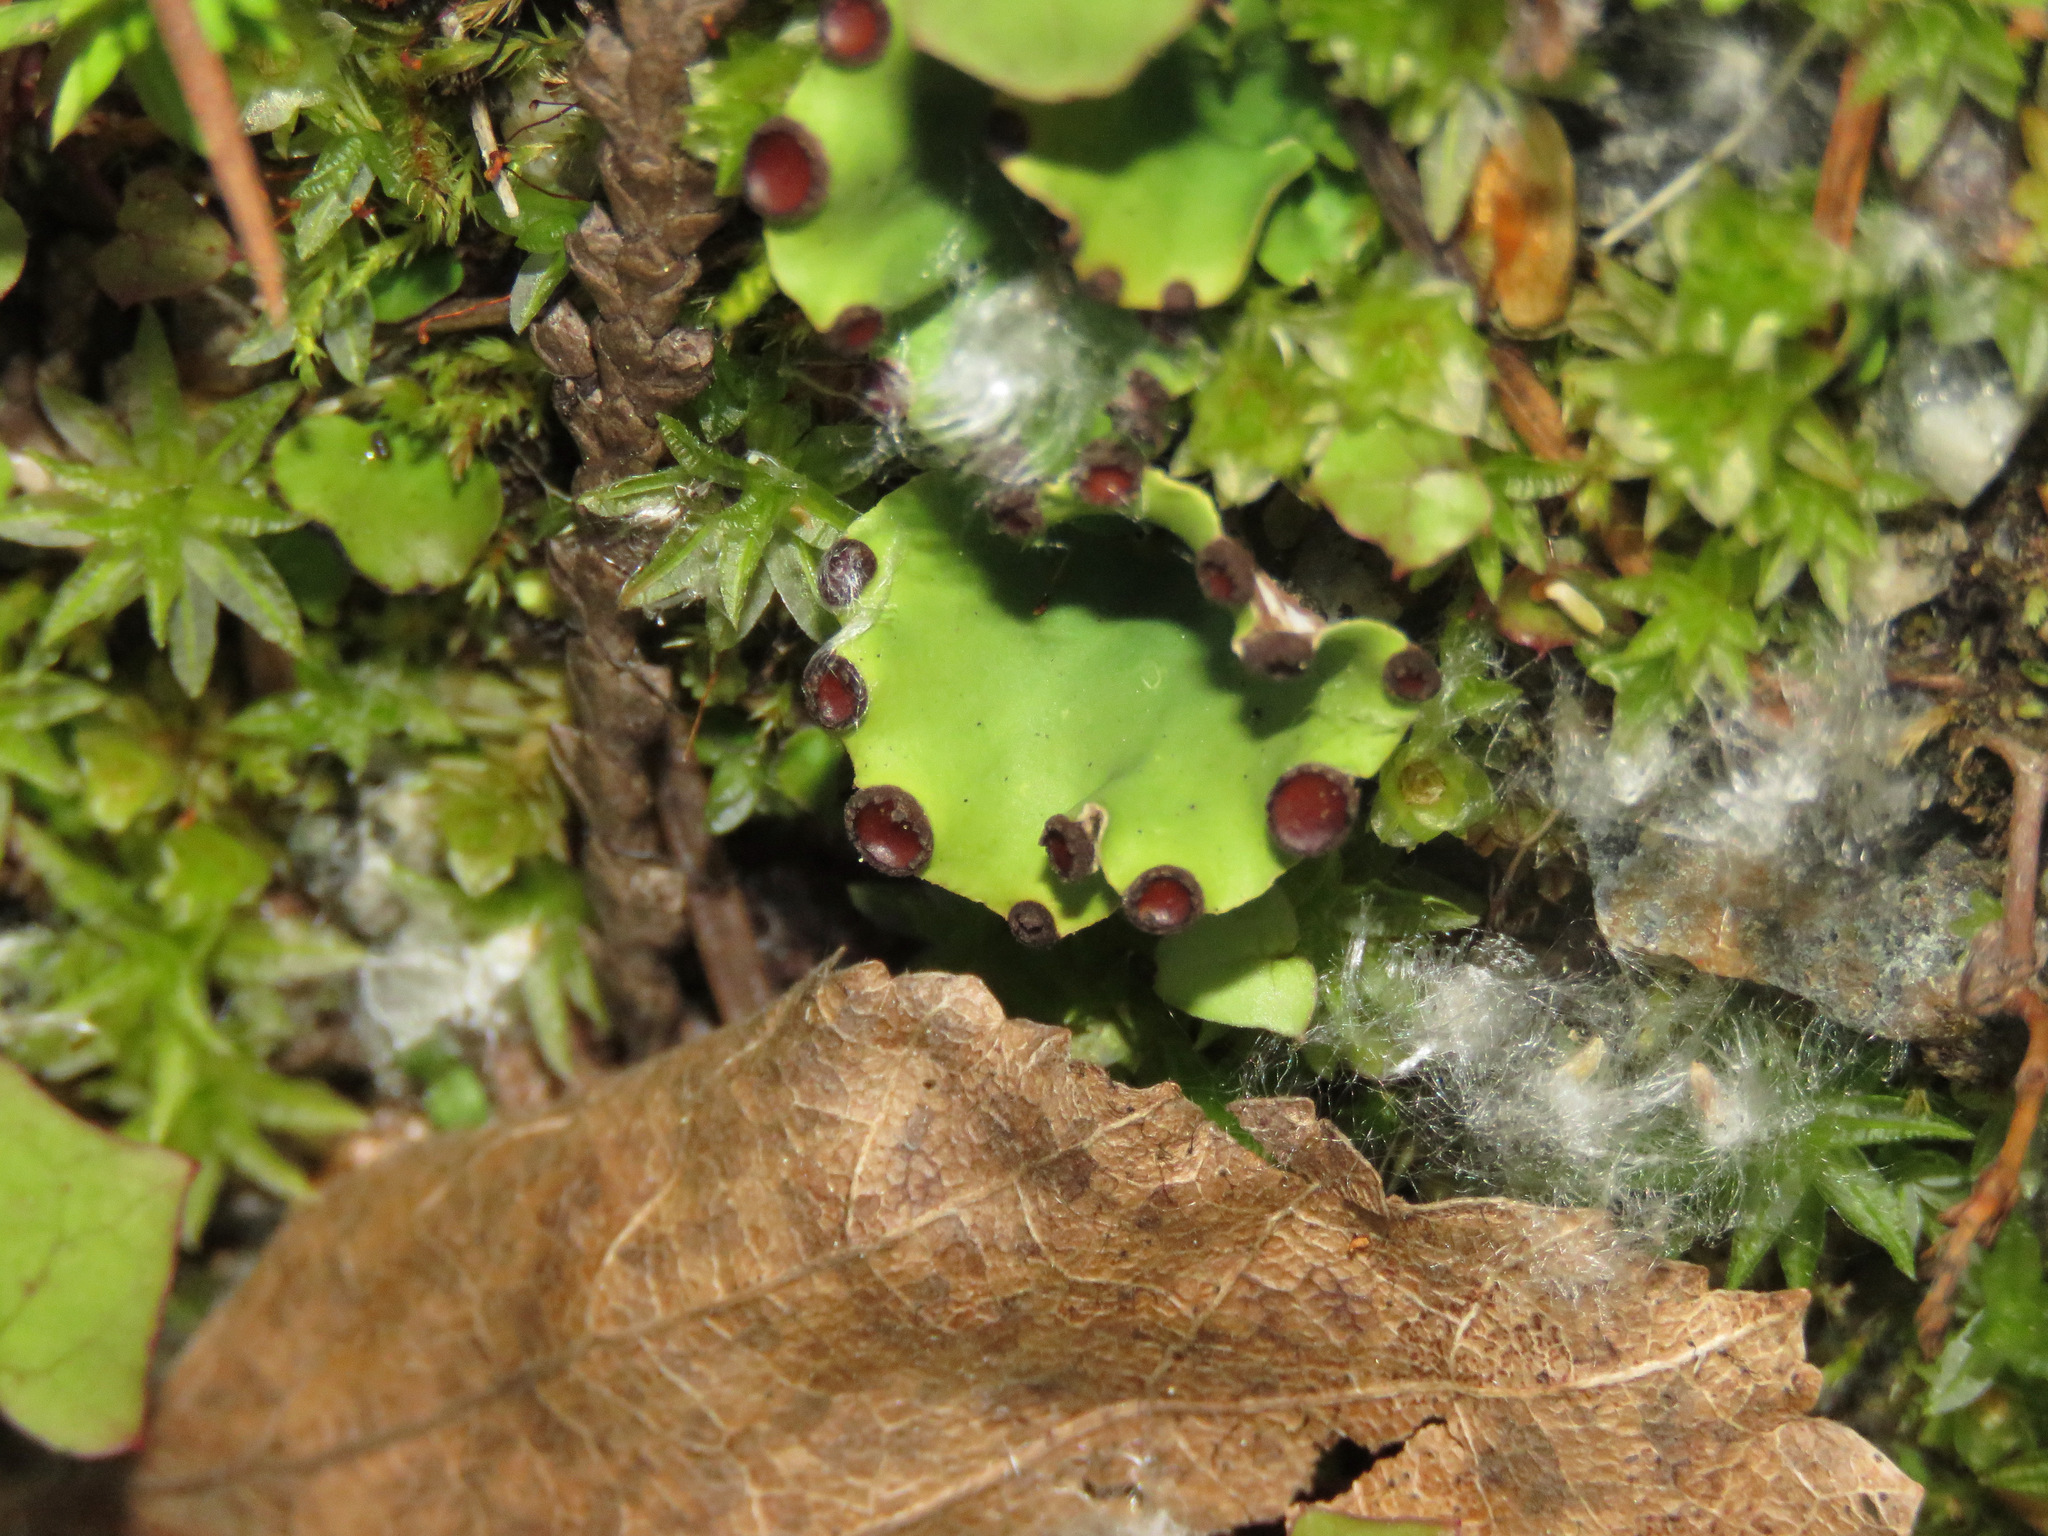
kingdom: Fungi
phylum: Ascomycota
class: Lecanoromycetes
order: Peltigerales
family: Peltigeraceae
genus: Peltigera
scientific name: Peltigera venosa
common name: Pixie gowns lichen
